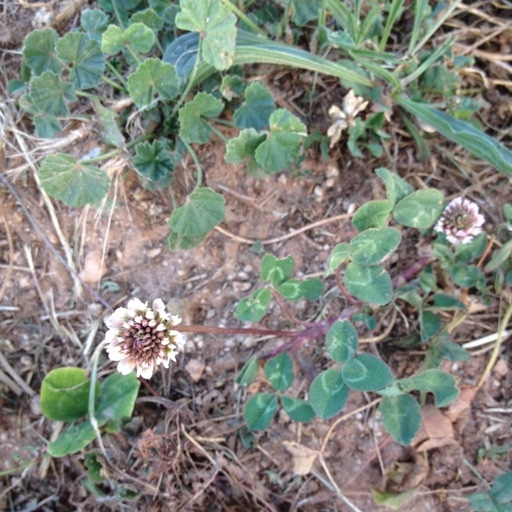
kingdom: Plantae
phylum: Tracheophyta
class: Magnoliopsida
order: Fabales
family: Fabaceae
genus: Trifolium
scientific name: Trifolium repens
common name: White clover
